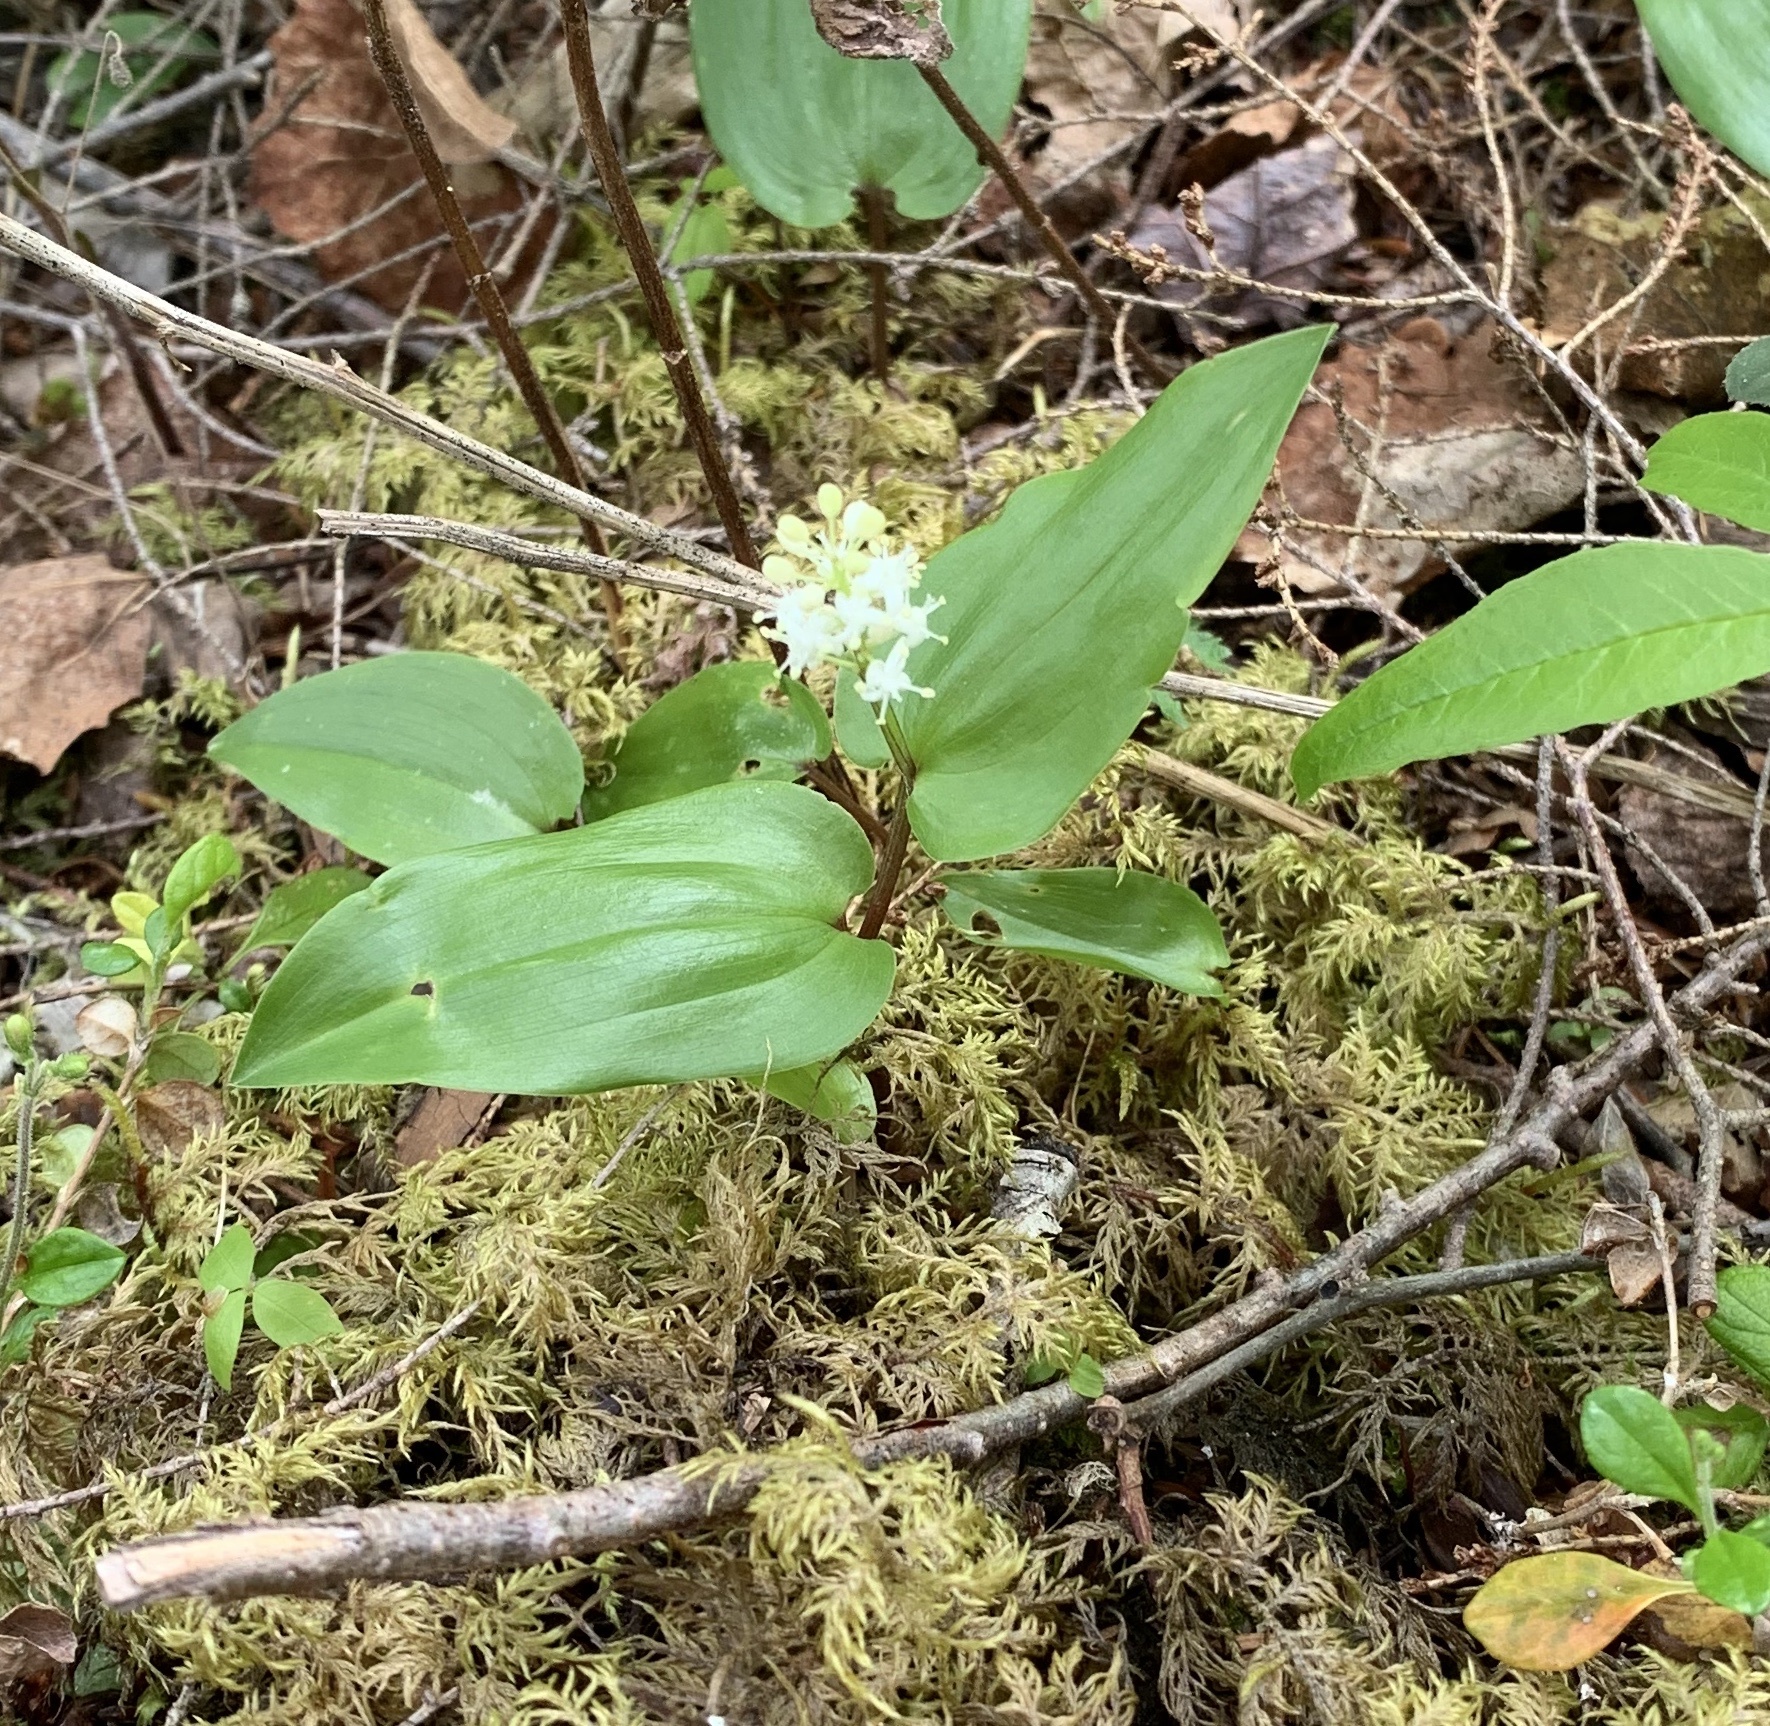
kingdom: Plantae
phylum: Tracheophyta
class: Liliopsida
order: Asparagales
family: Asparagaceae
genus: Maianthemum
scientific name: Maianthemum canadense
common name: False lily-of-the-valley
